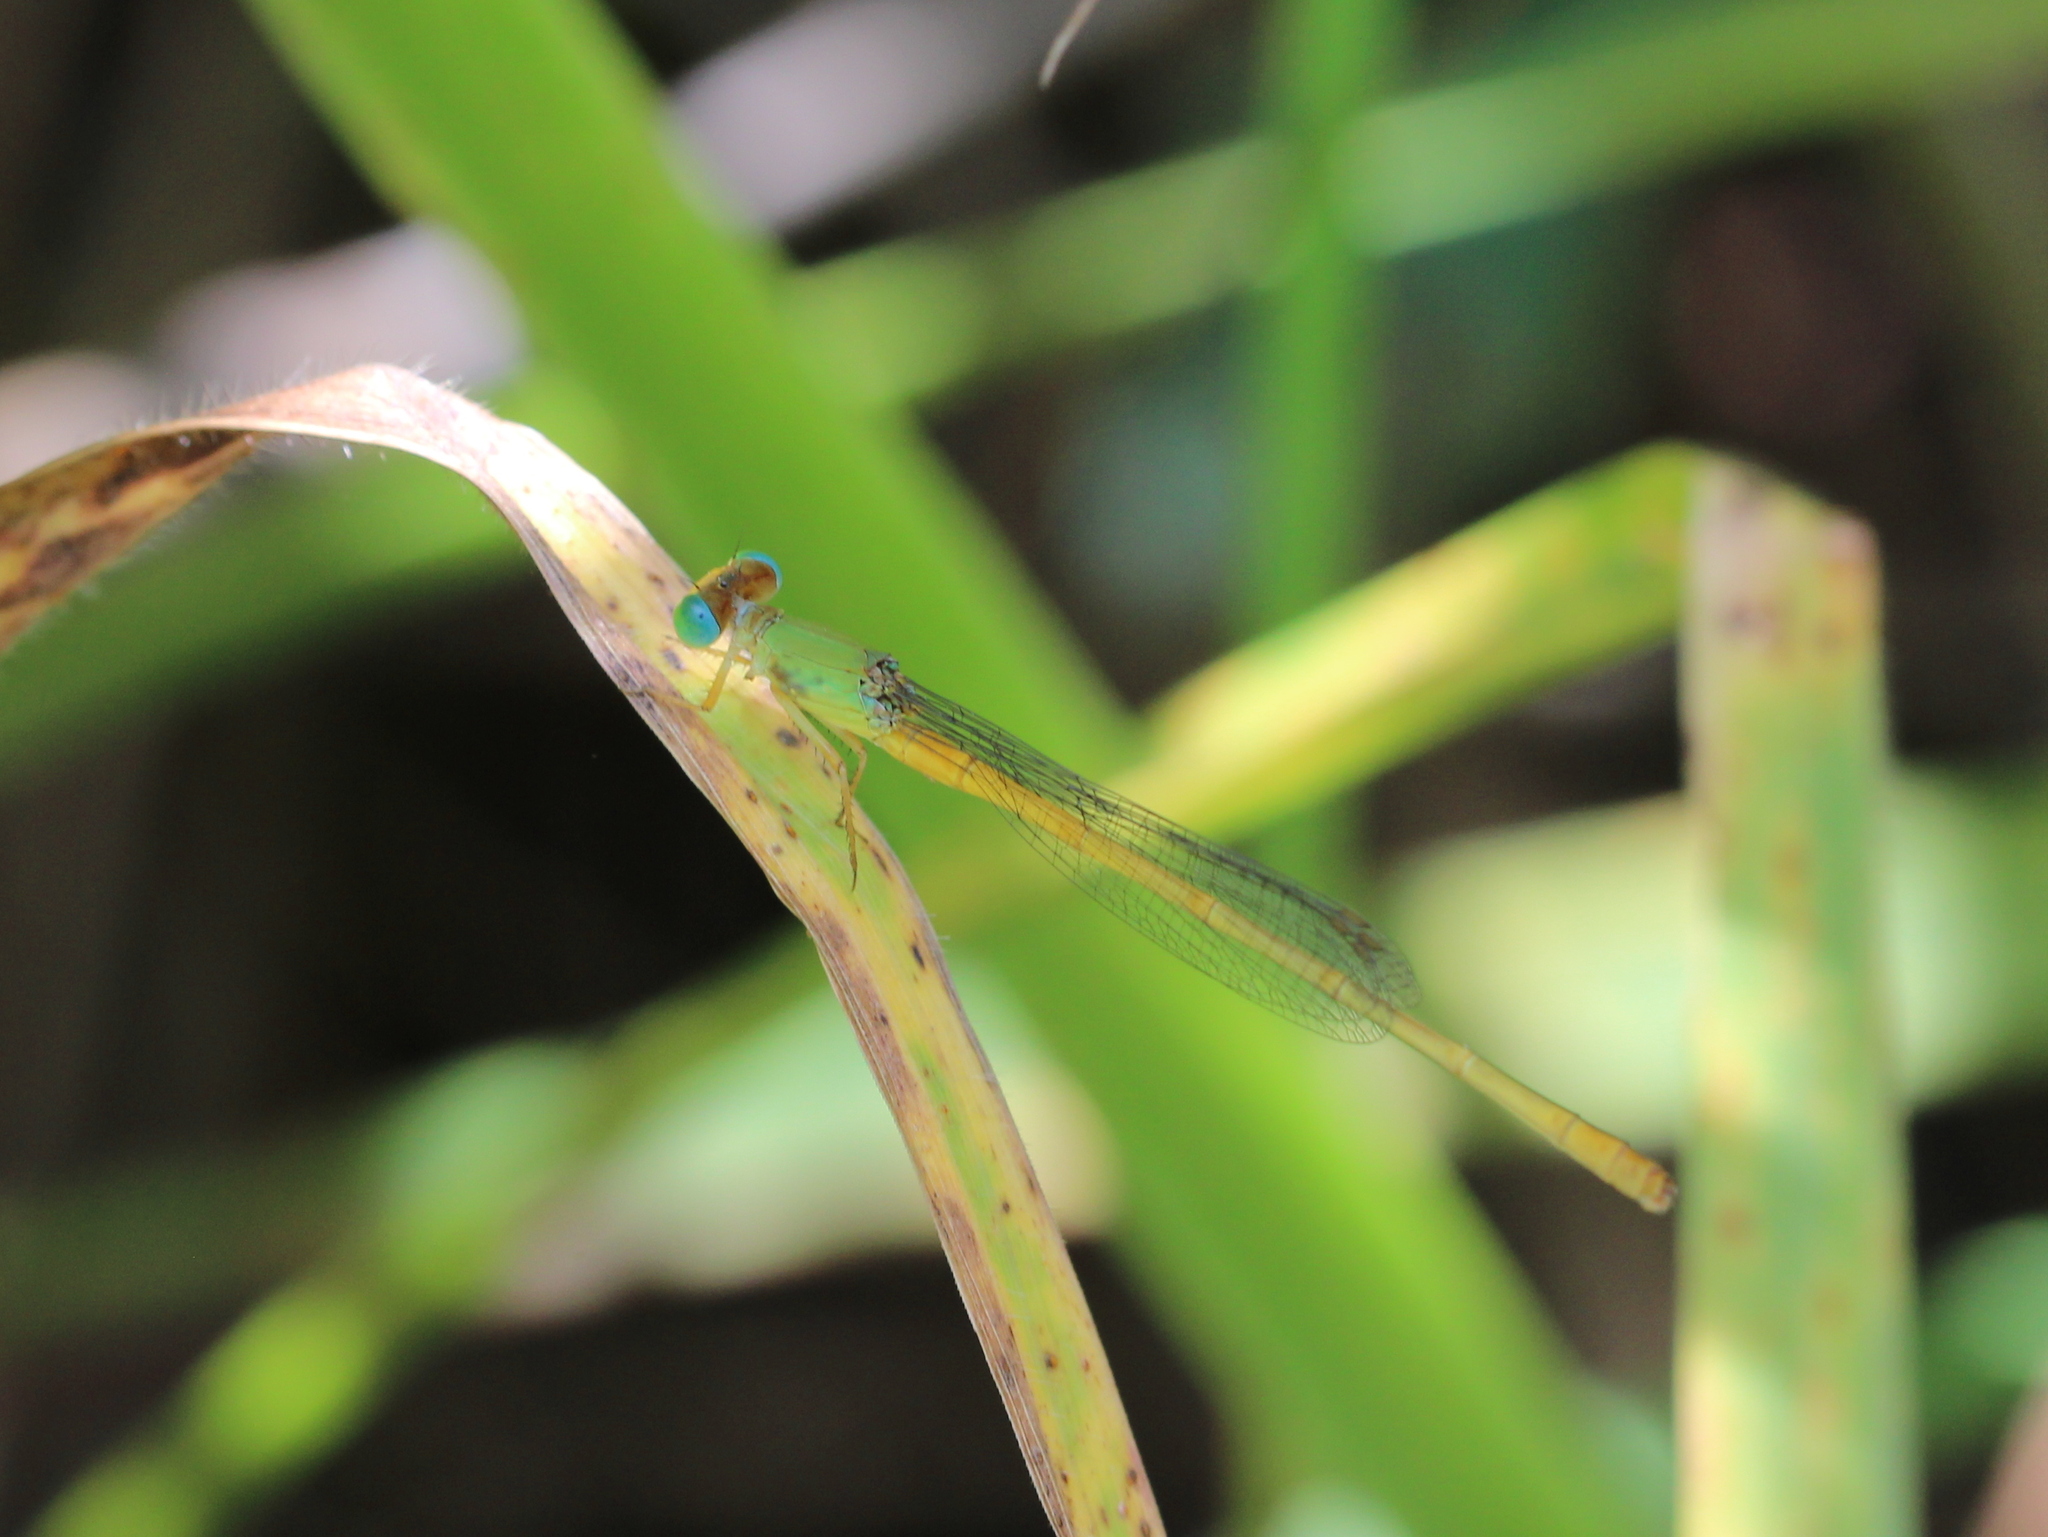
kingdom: Animalia
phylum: Arthropoda
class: Insecta
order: Odonata
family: Coenagrionidae
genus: Ceriagrion
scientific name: Ceriagrion coromandelianum
